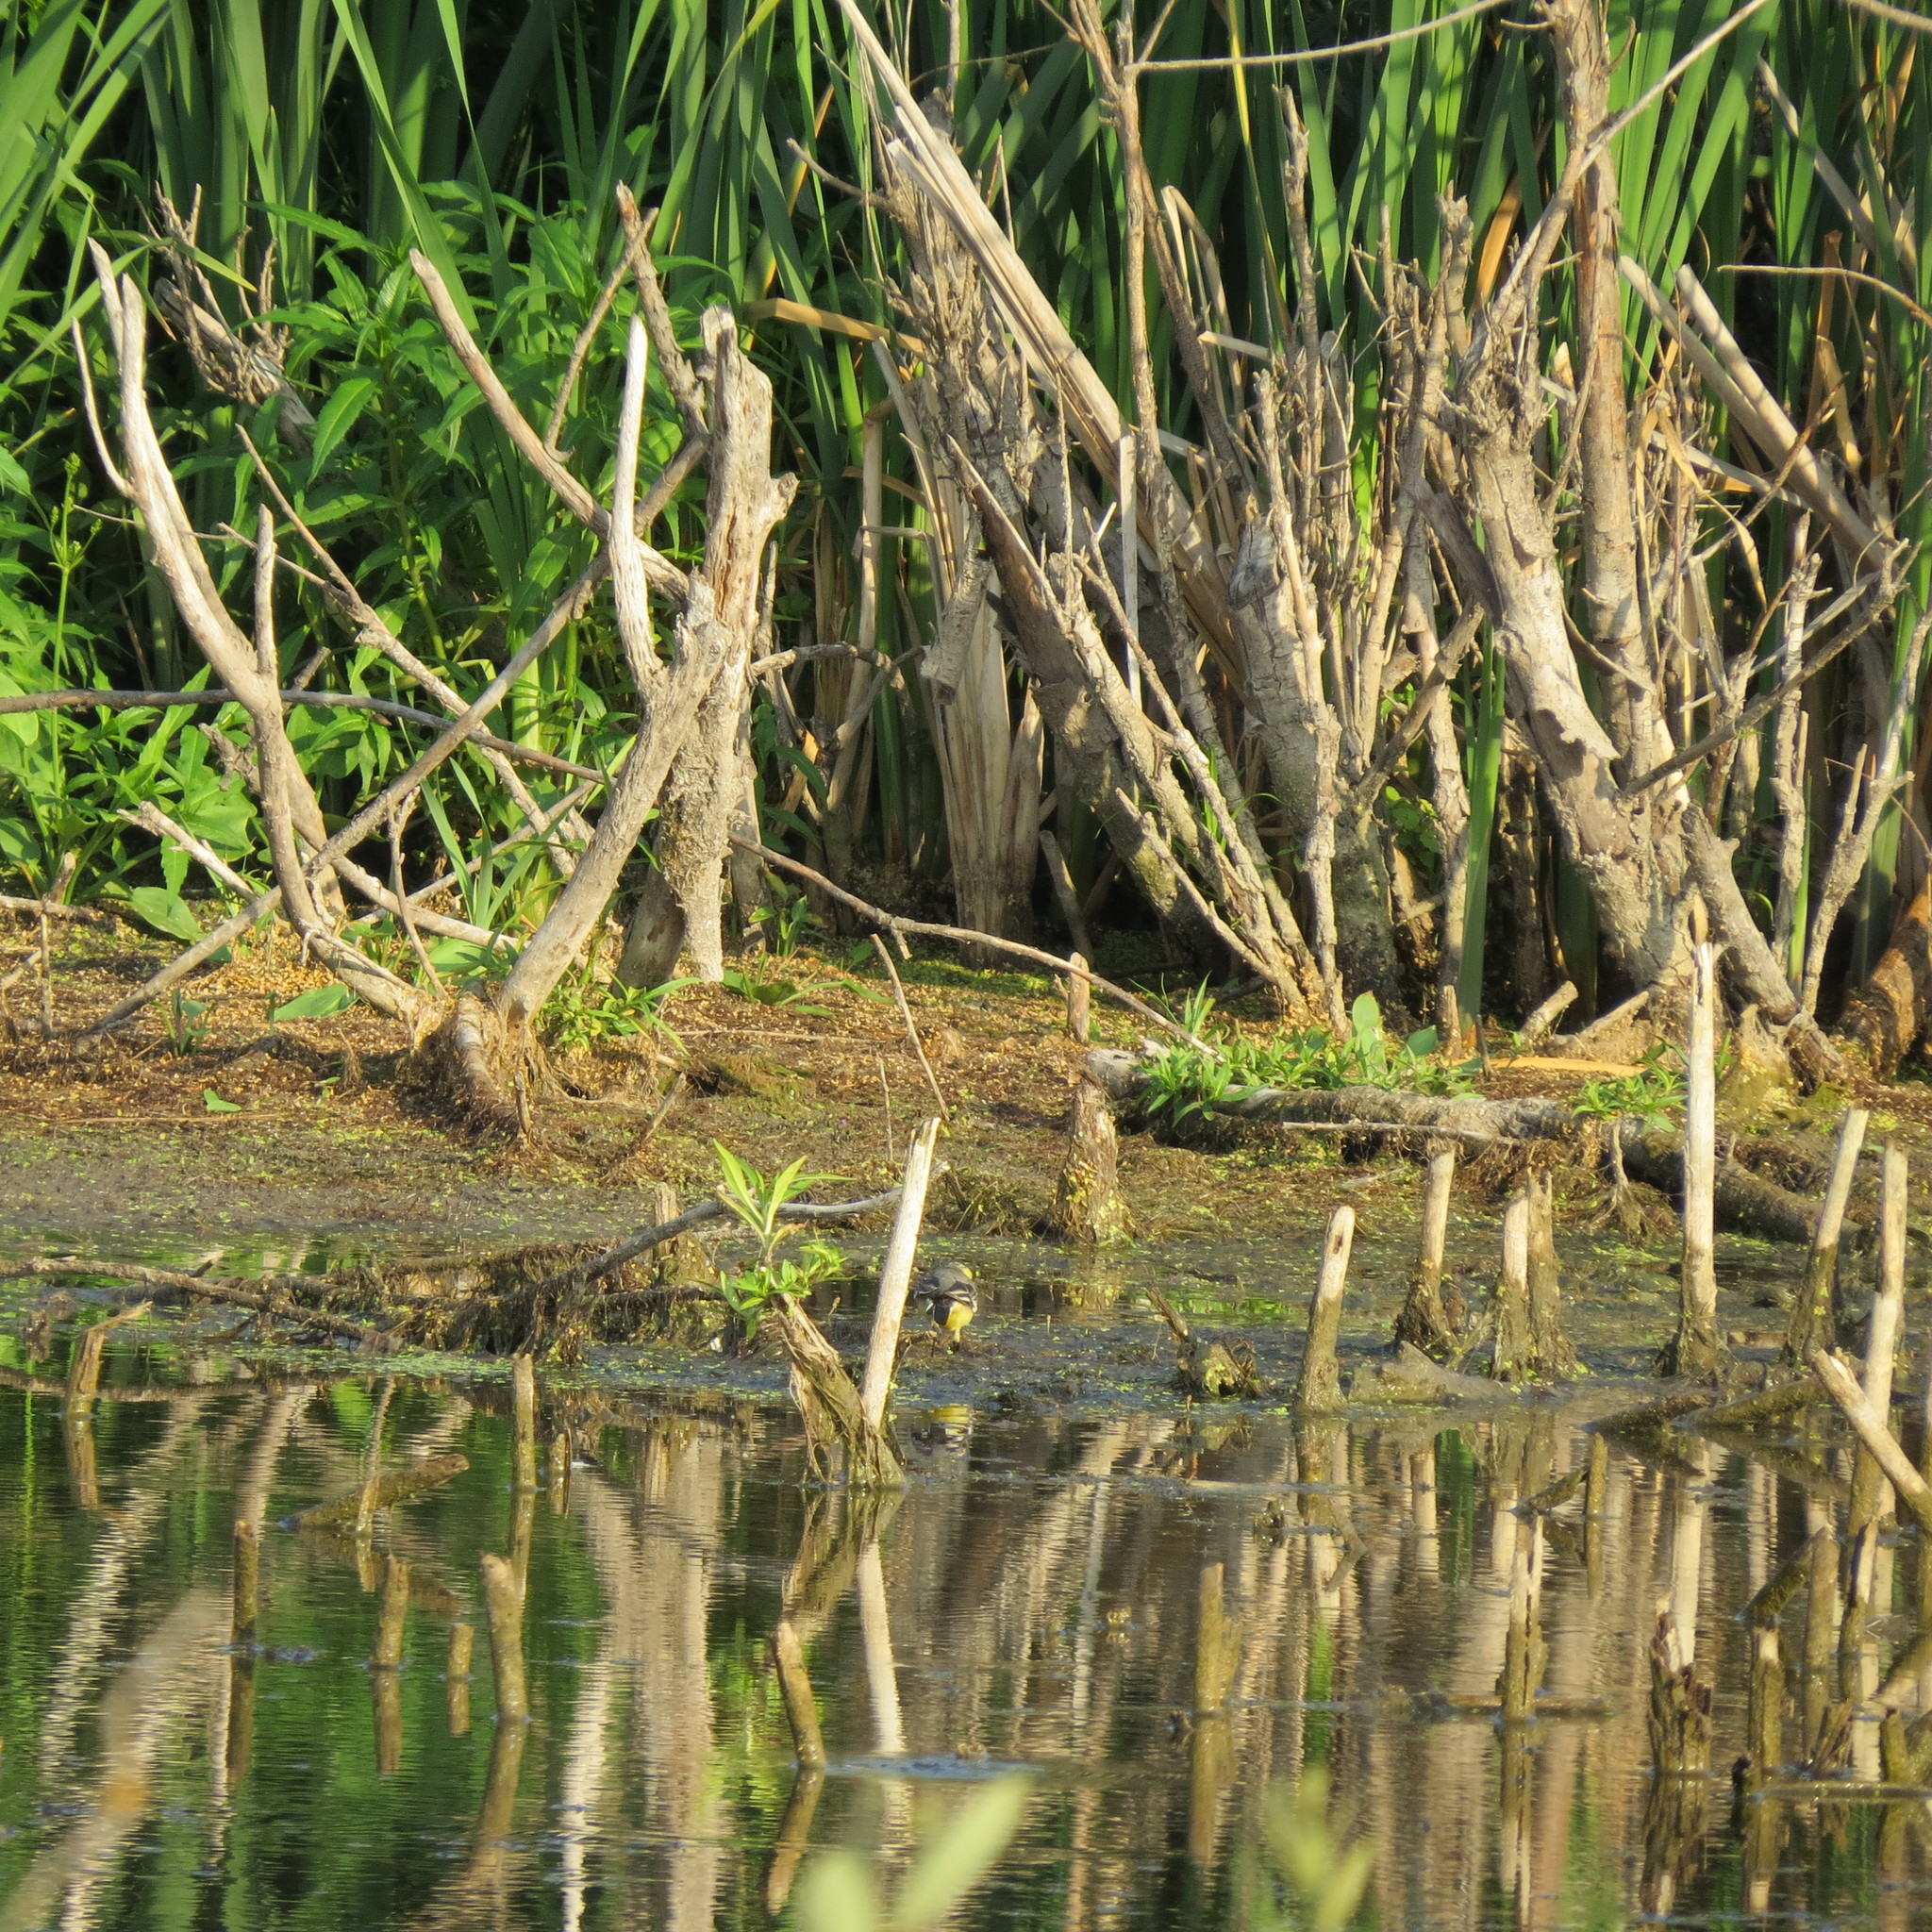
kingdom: Animalia
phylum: Chordata
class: Aves
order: Passeriformes
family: Motacillidae
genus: Motacilla
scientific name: Motacilla citreola
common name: Citrine wagtail
